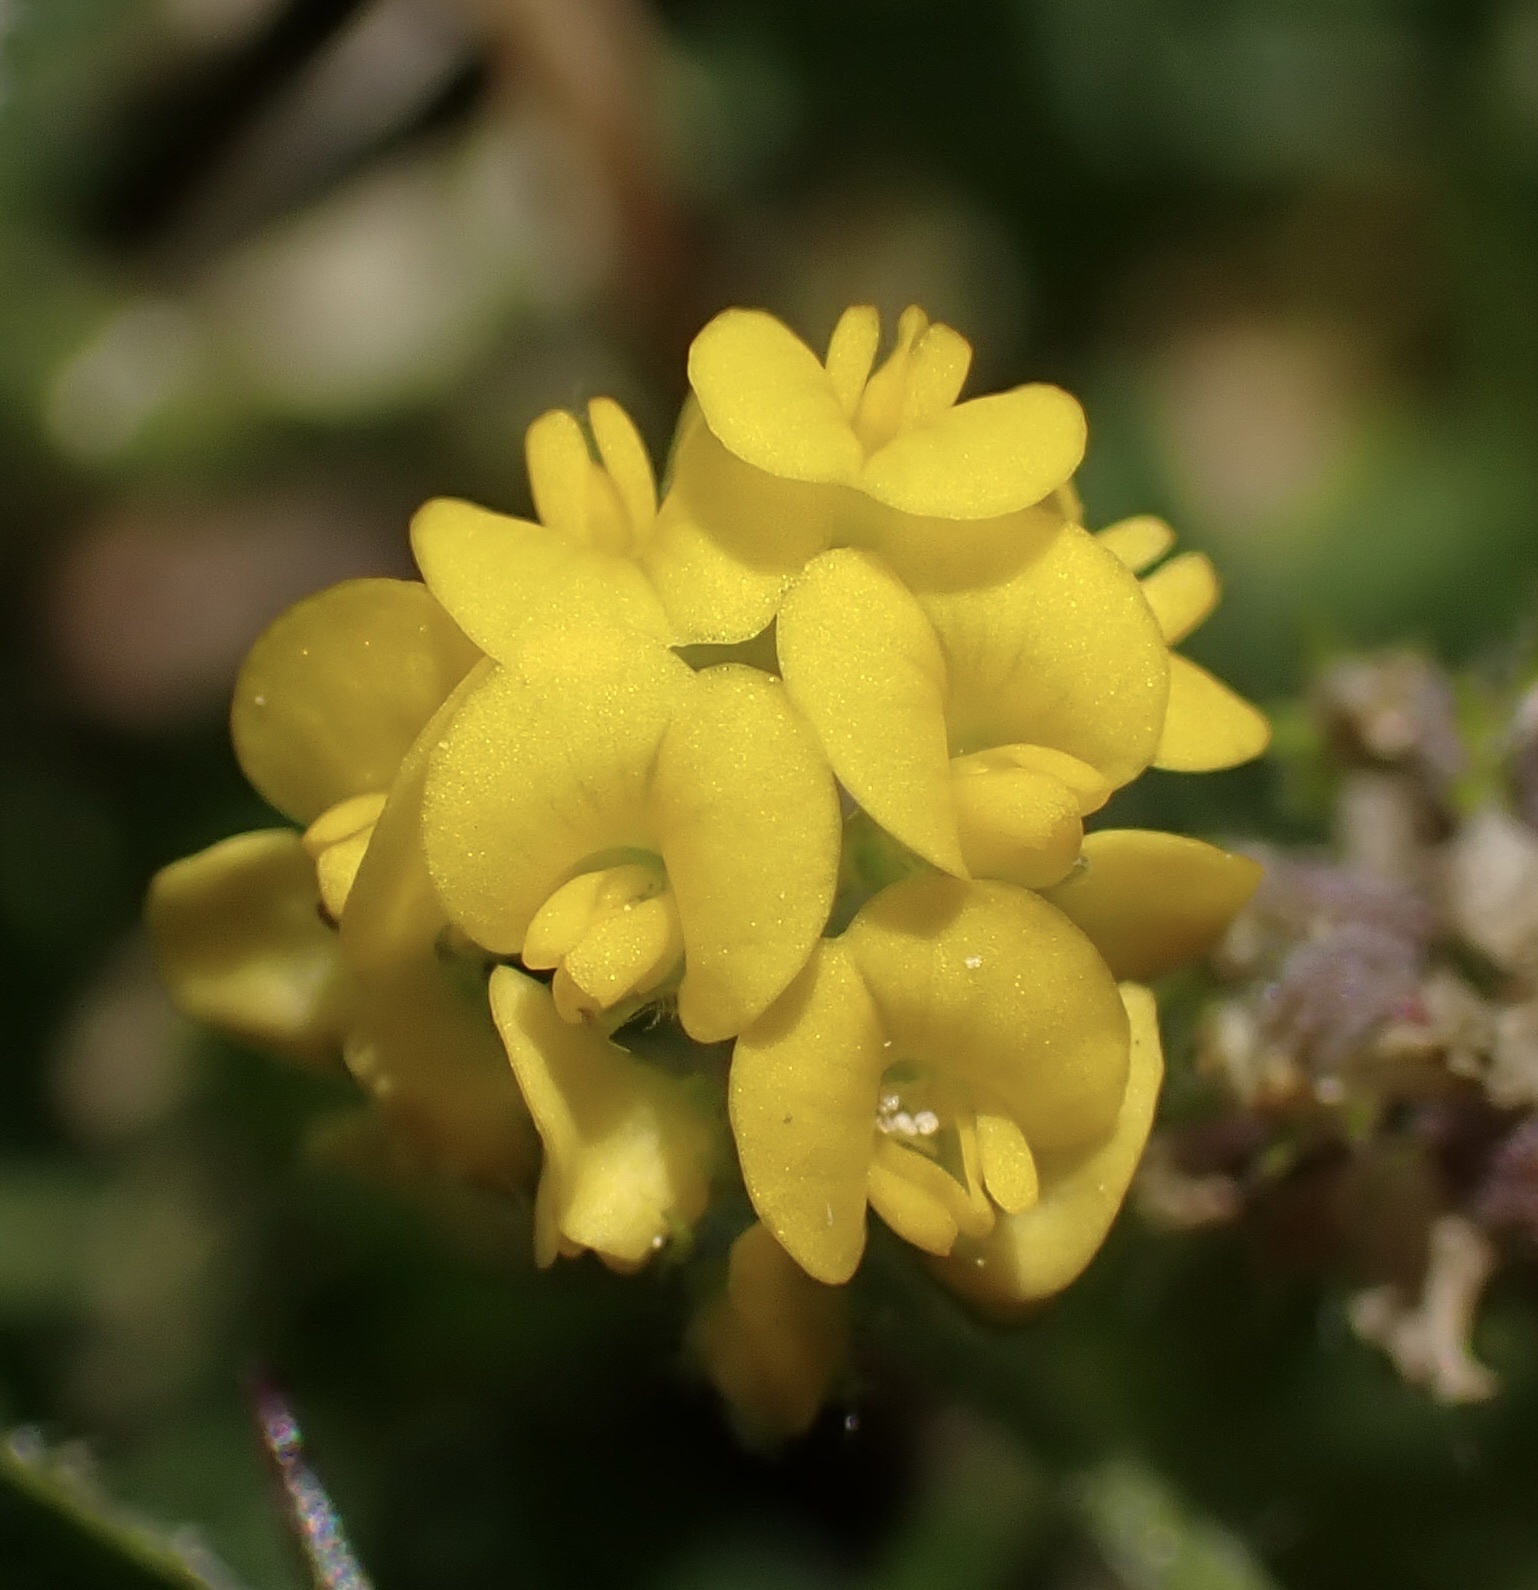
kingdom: Plantae
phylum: Tracheophyta
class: Magnoliopsida
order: Fabales
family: Fabaceae
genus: Medicago
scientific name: Medicago lupulina
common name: Black medick
